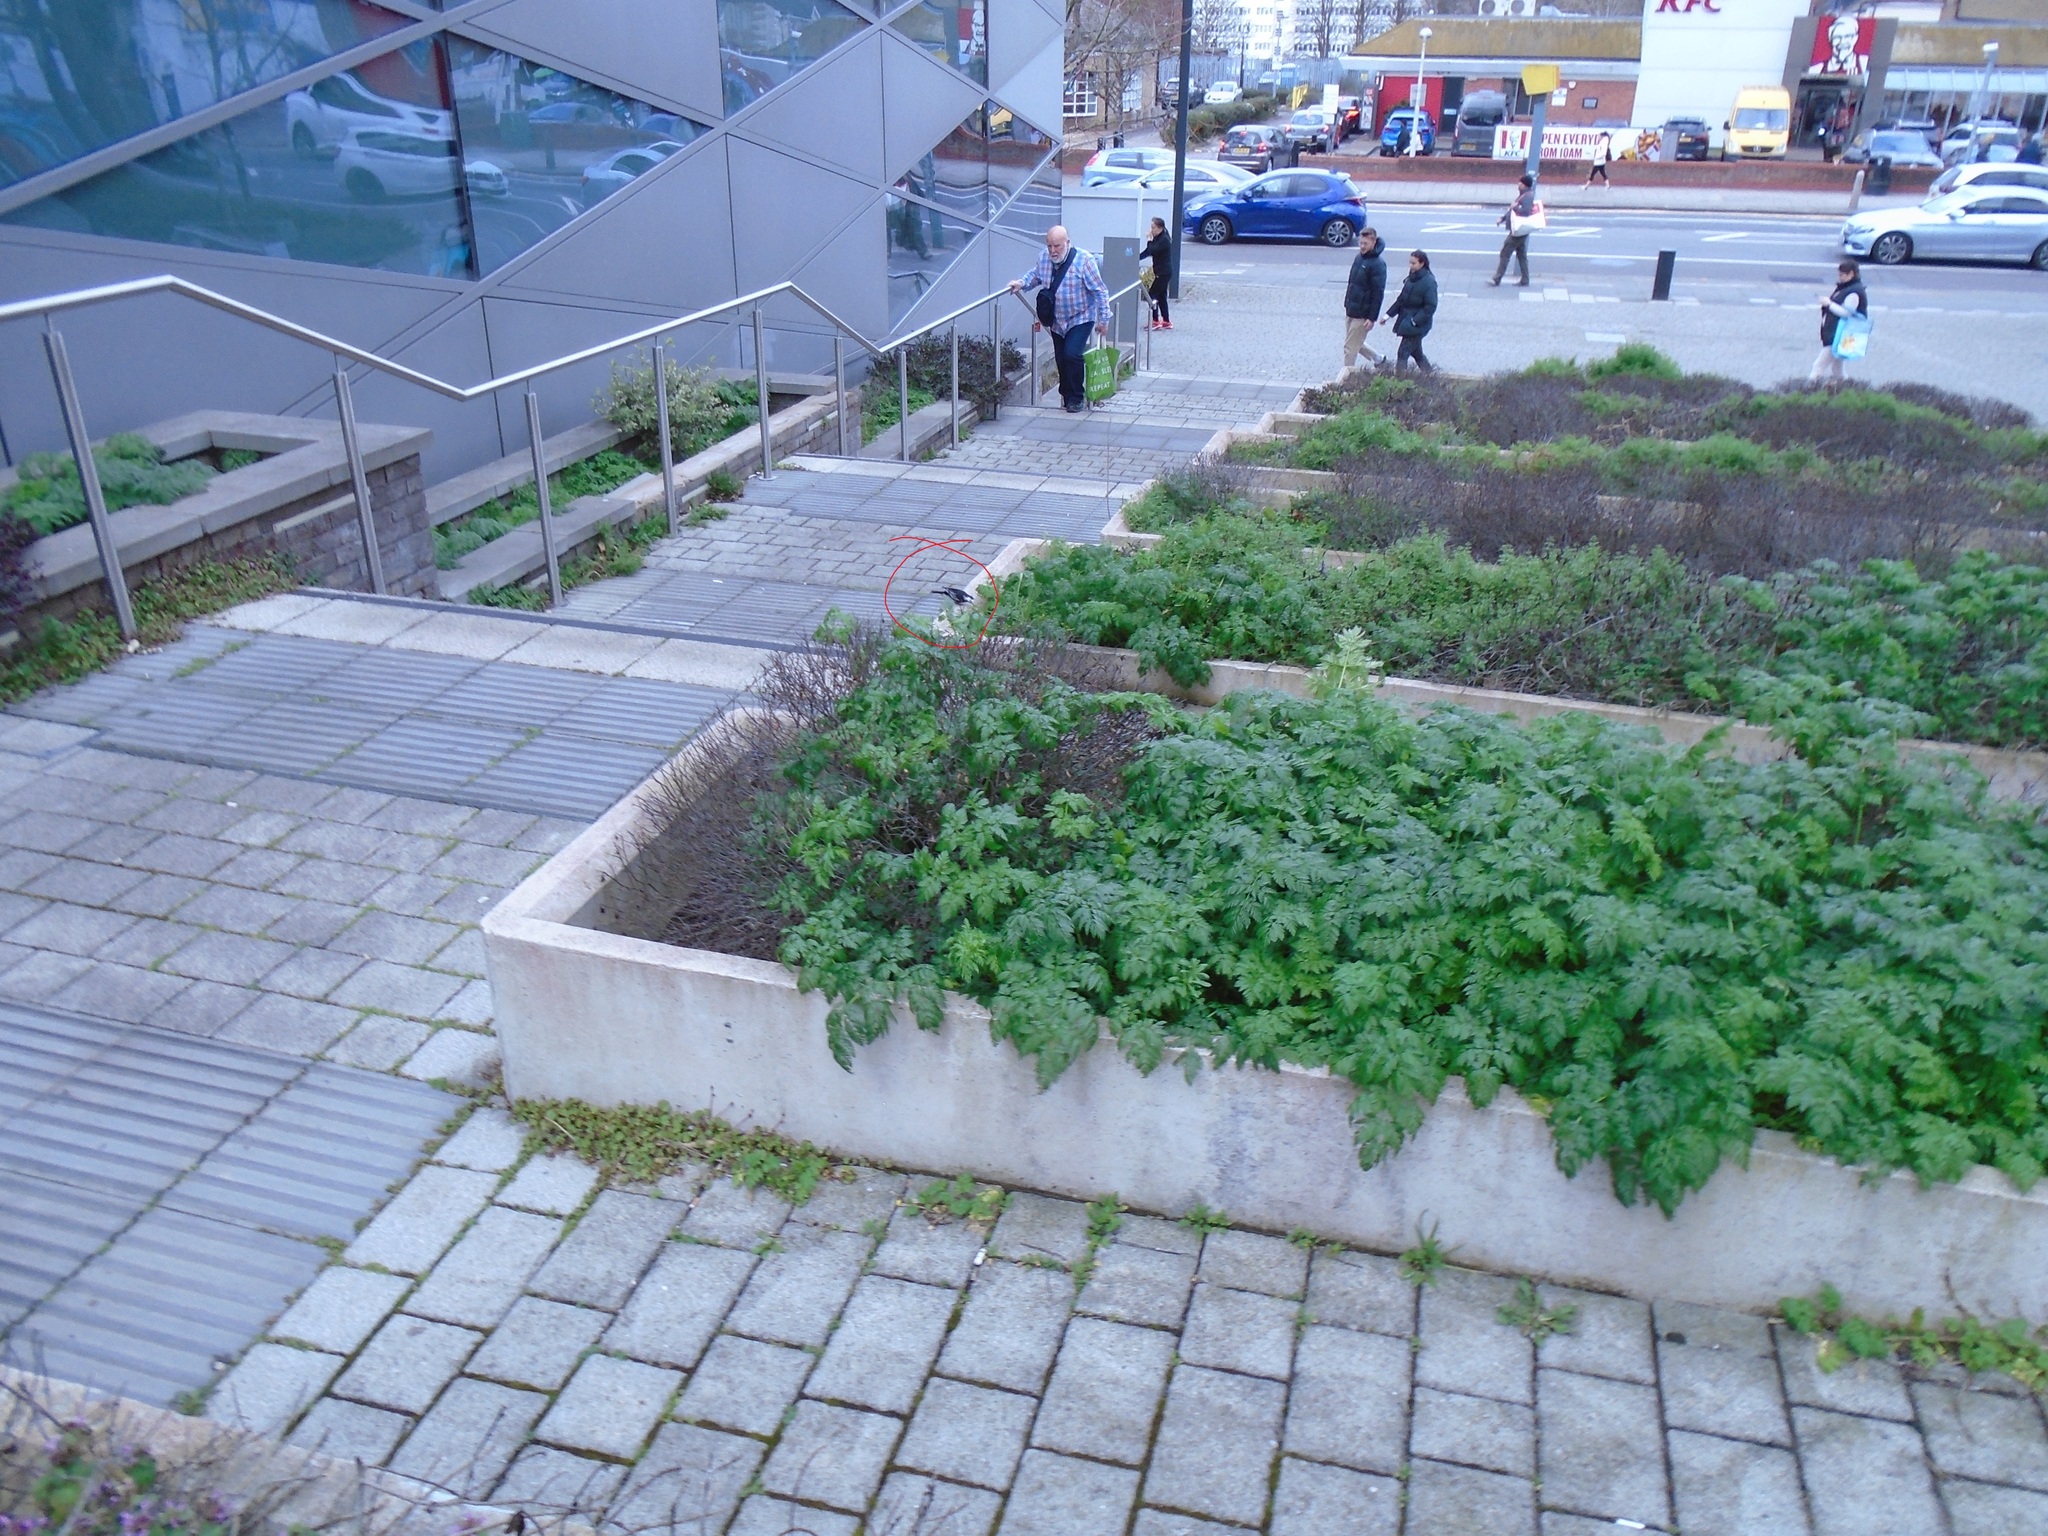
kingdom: Animalia
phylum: Chordata
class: Aves
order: Passeriformes
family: Motacillidae
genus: Motacilla
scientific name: Motacilla alba
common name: White wagtail
